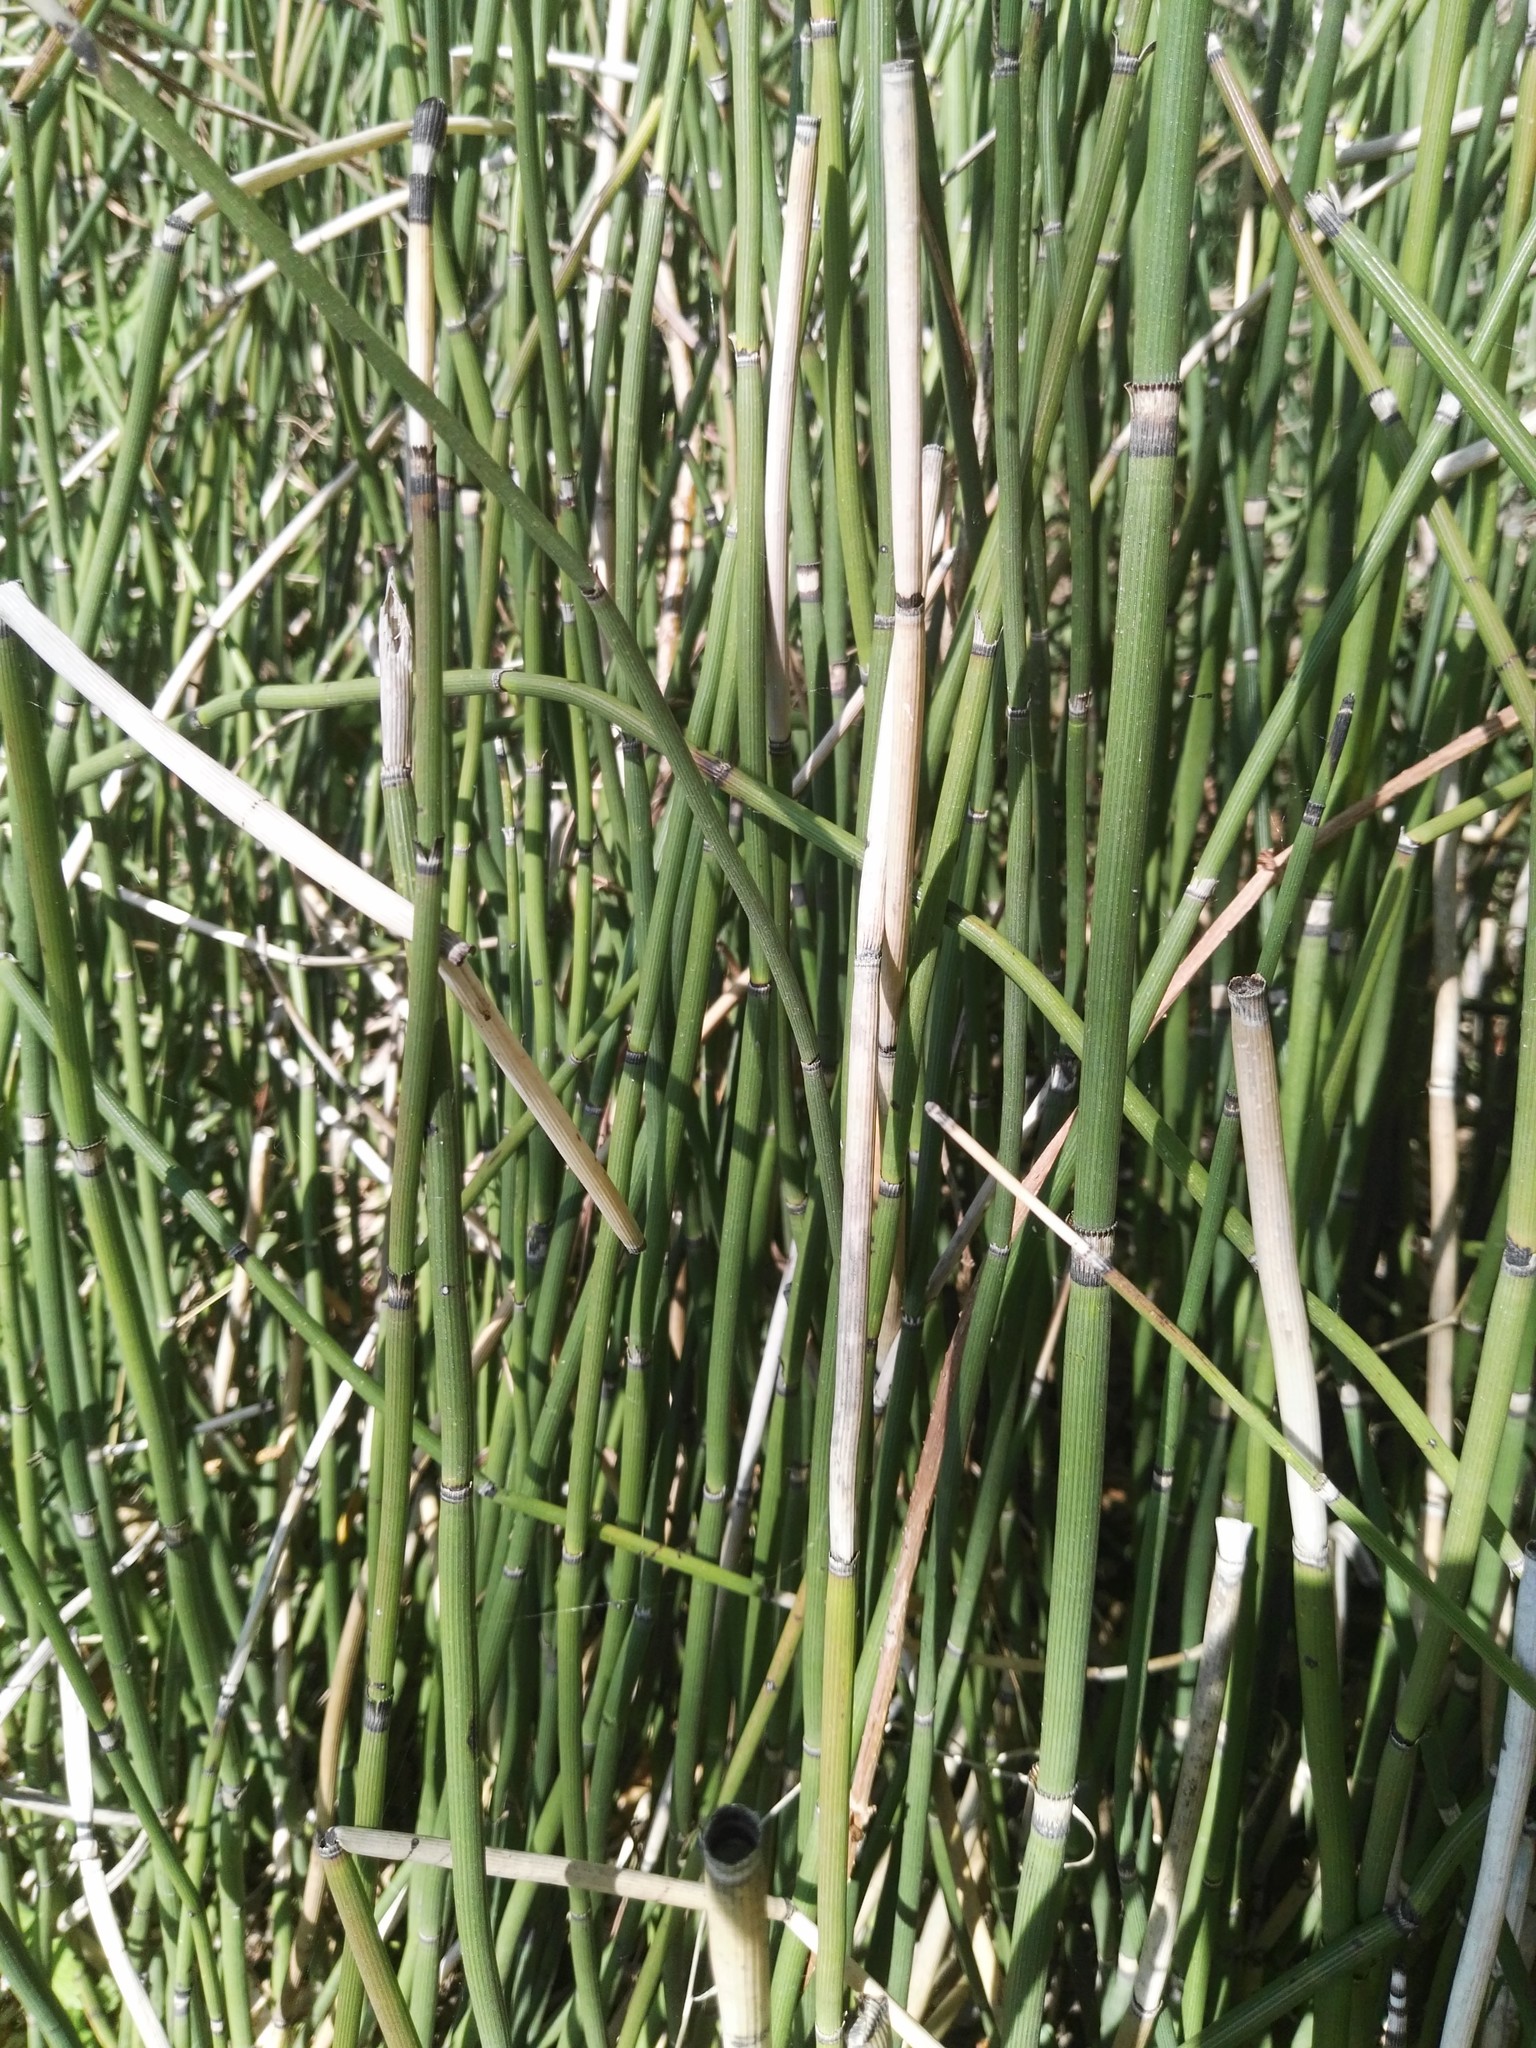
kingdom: Plantae
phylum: Tracheophyta
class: Polypodiopsida
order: Equisetales
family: Equisetaceae
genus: Equisetum
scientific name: Equisetum hyemale
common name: Rough horsetail
